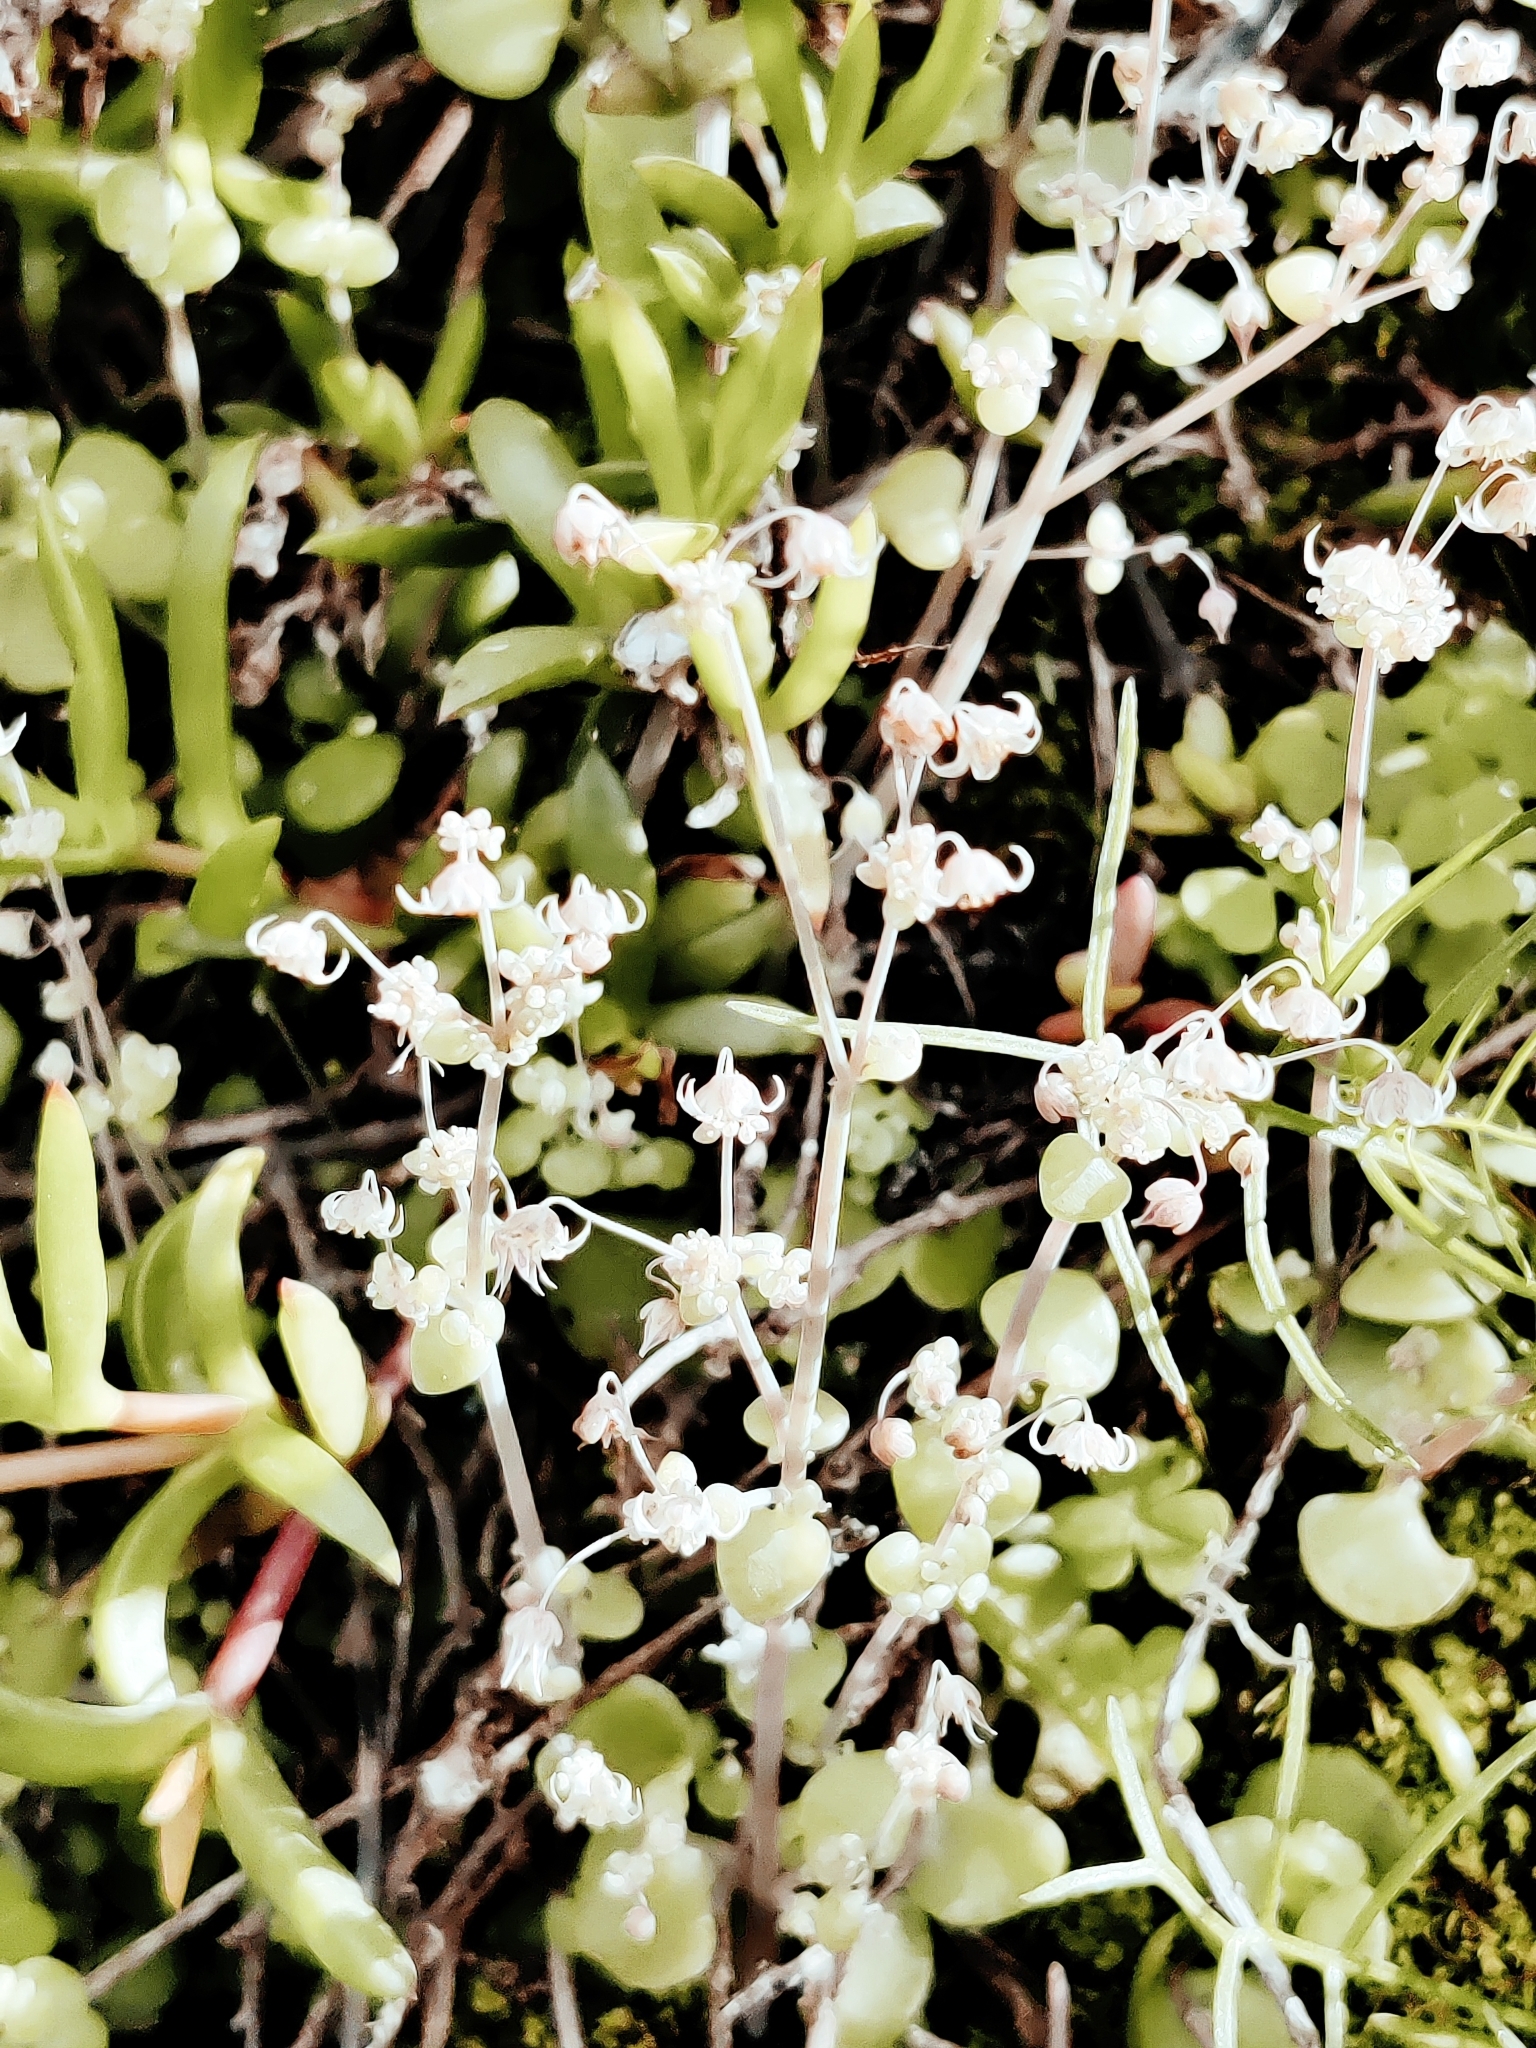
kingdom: Plantae
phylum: Tracheophyta
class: Magnoliopsida
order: Saxifragales
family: Crassulaceae
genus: Crassula
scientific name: Crassula nemorosa
